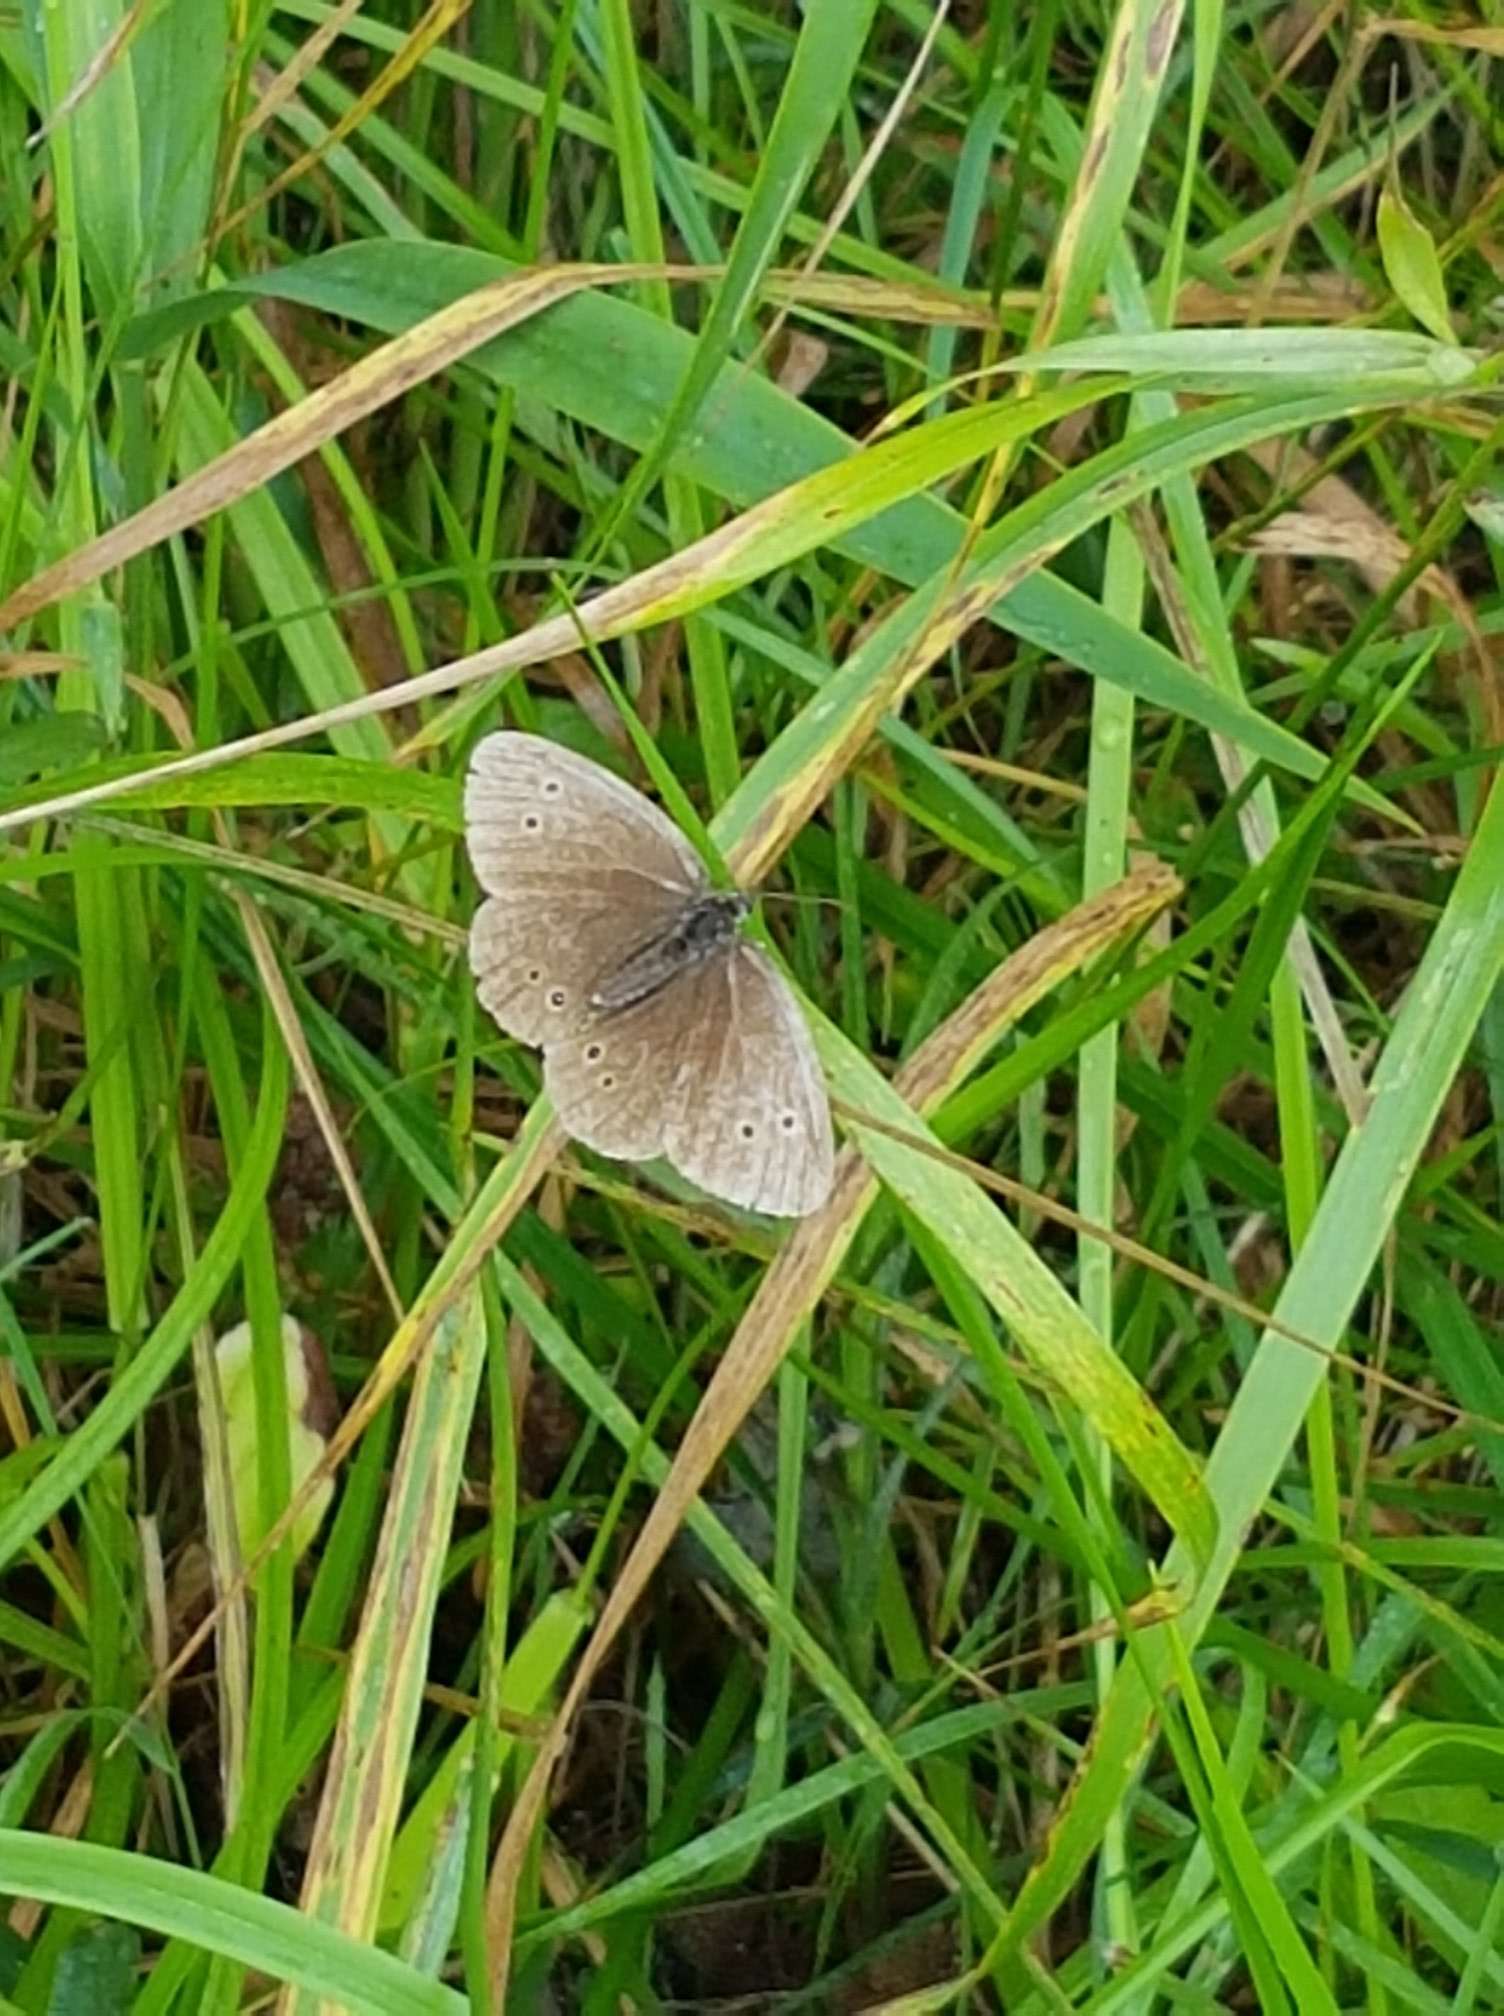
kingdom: Animalia
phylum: Arthropoda
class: Insecta
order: Lepidoptera
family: Nymphalidae
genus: Aphantopus
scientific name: Aphantopus hyperantus
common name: Ringlet
